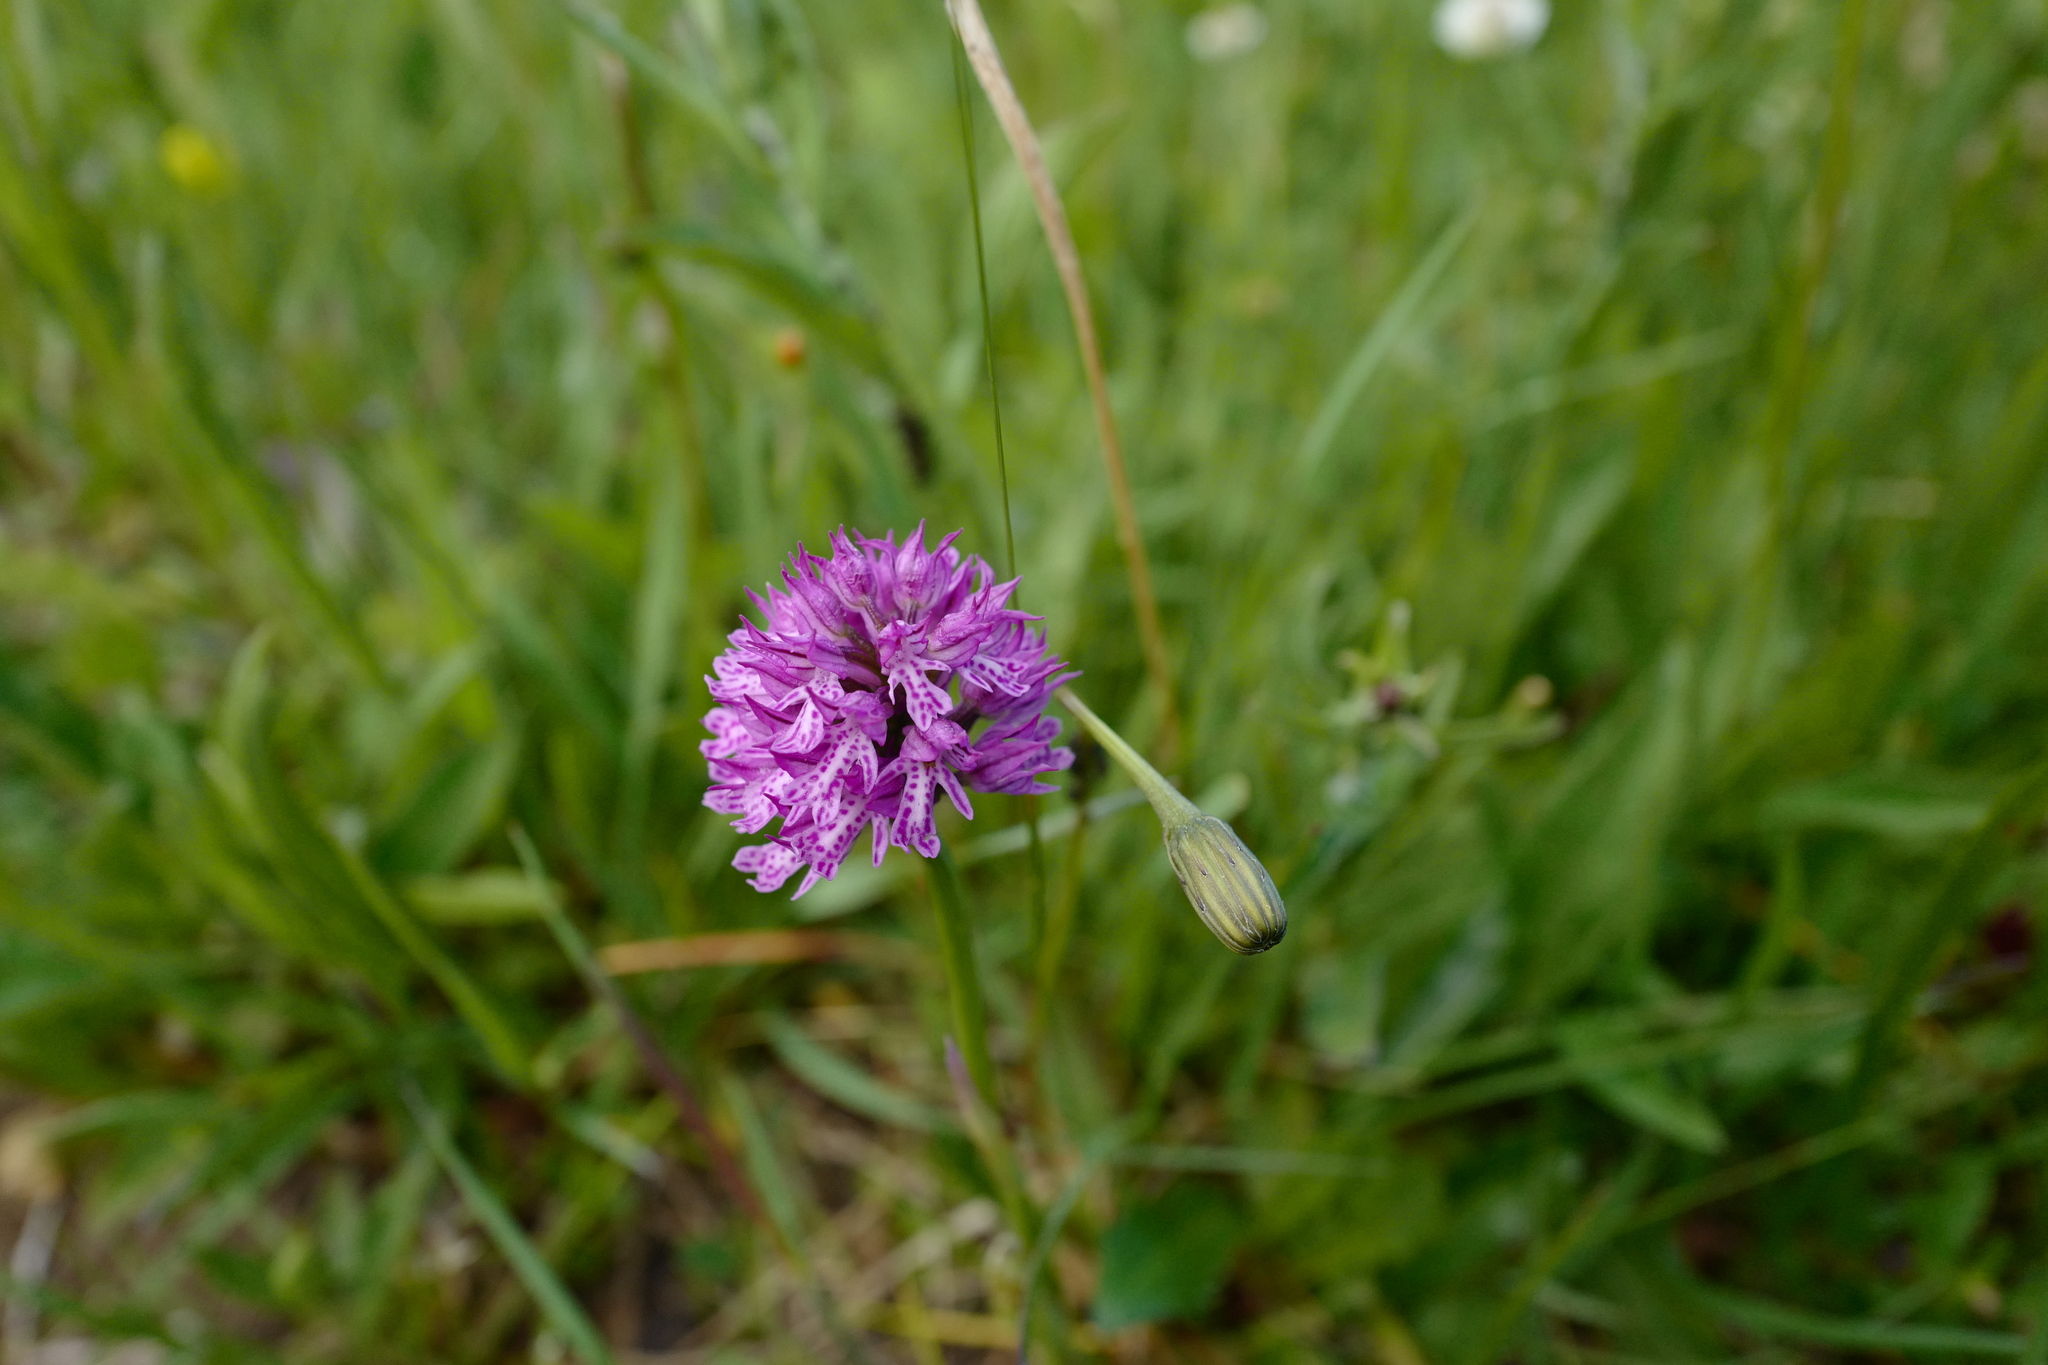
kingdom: Plantae
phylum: Tracheophyta
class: Liliopsida
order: Asparagales
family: Orchidaceae
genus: Neotinea
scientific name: Neotinea tridentata
